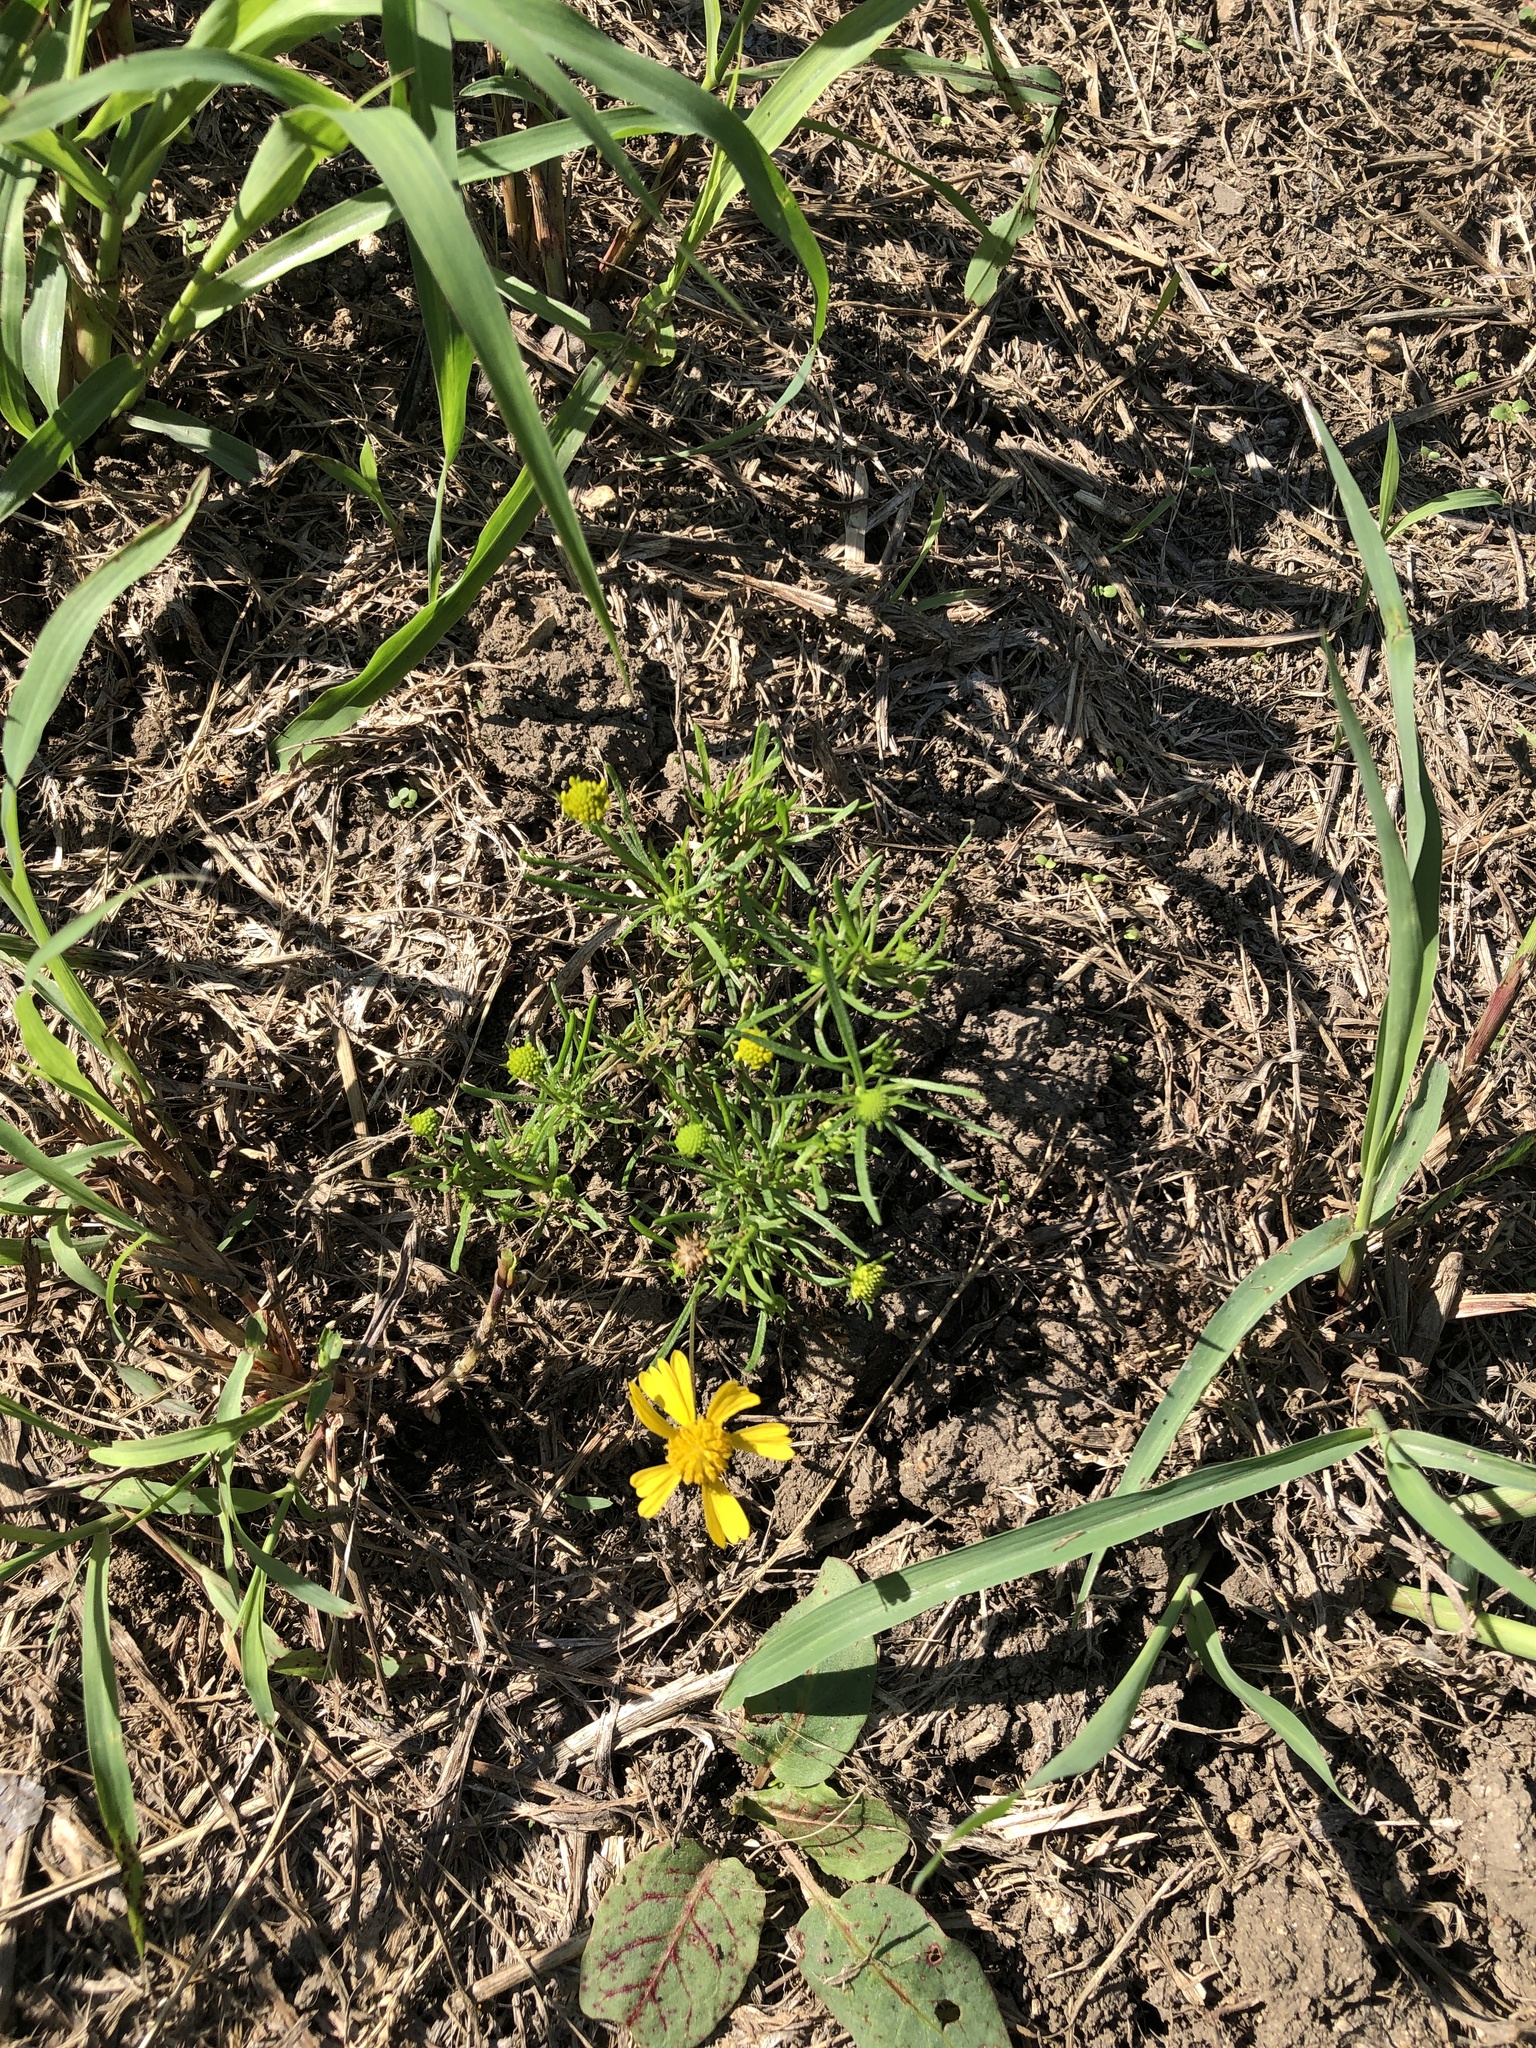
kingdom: Plantae
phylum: Tracheophyta
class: Magnoliopsida
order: Asterales
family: Asteraceae
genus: Helenium
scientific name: Helenium amarum
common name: Bitter sneezeweed
